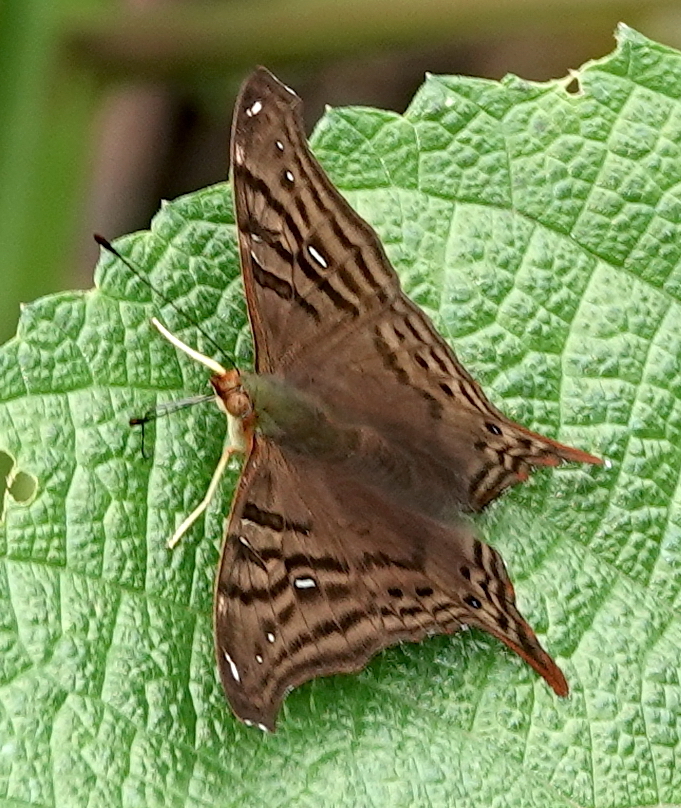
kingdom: Animalia
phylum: Arthropoda
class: Insecta
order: Lepidoptera
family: Nymphalidae
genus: Hypanartia
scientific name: Hypanartia dione
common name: Banded mapwing
